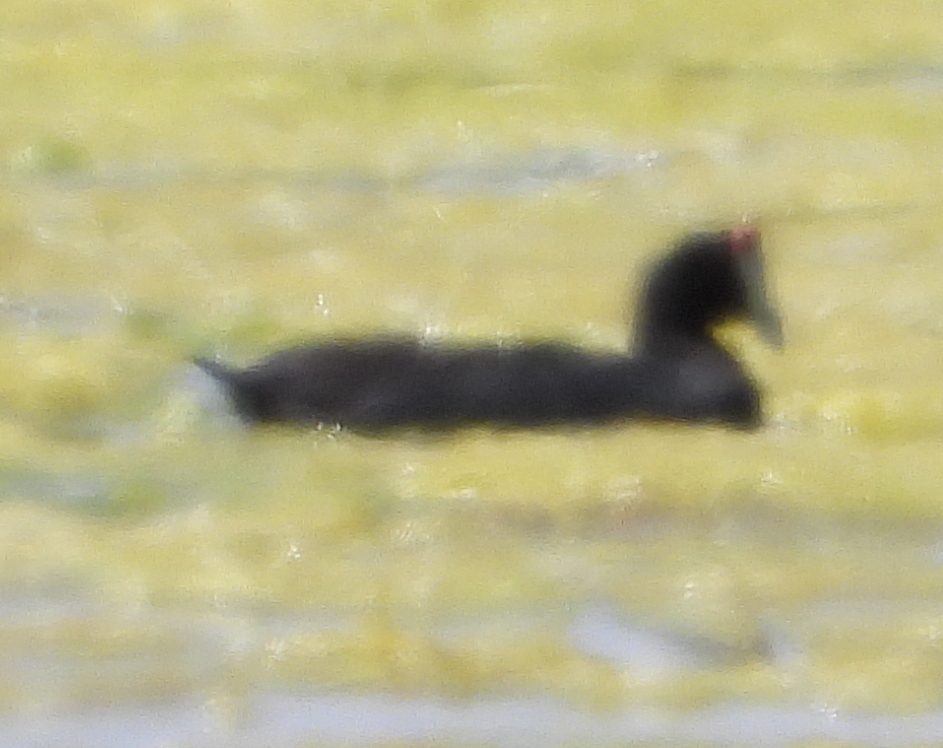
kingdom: Animalia
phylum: Chordata
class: Aves
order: Gruiformes
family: Rallidae
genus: Fulica
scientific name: Fulica cristata
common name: Red-knobbed coot
